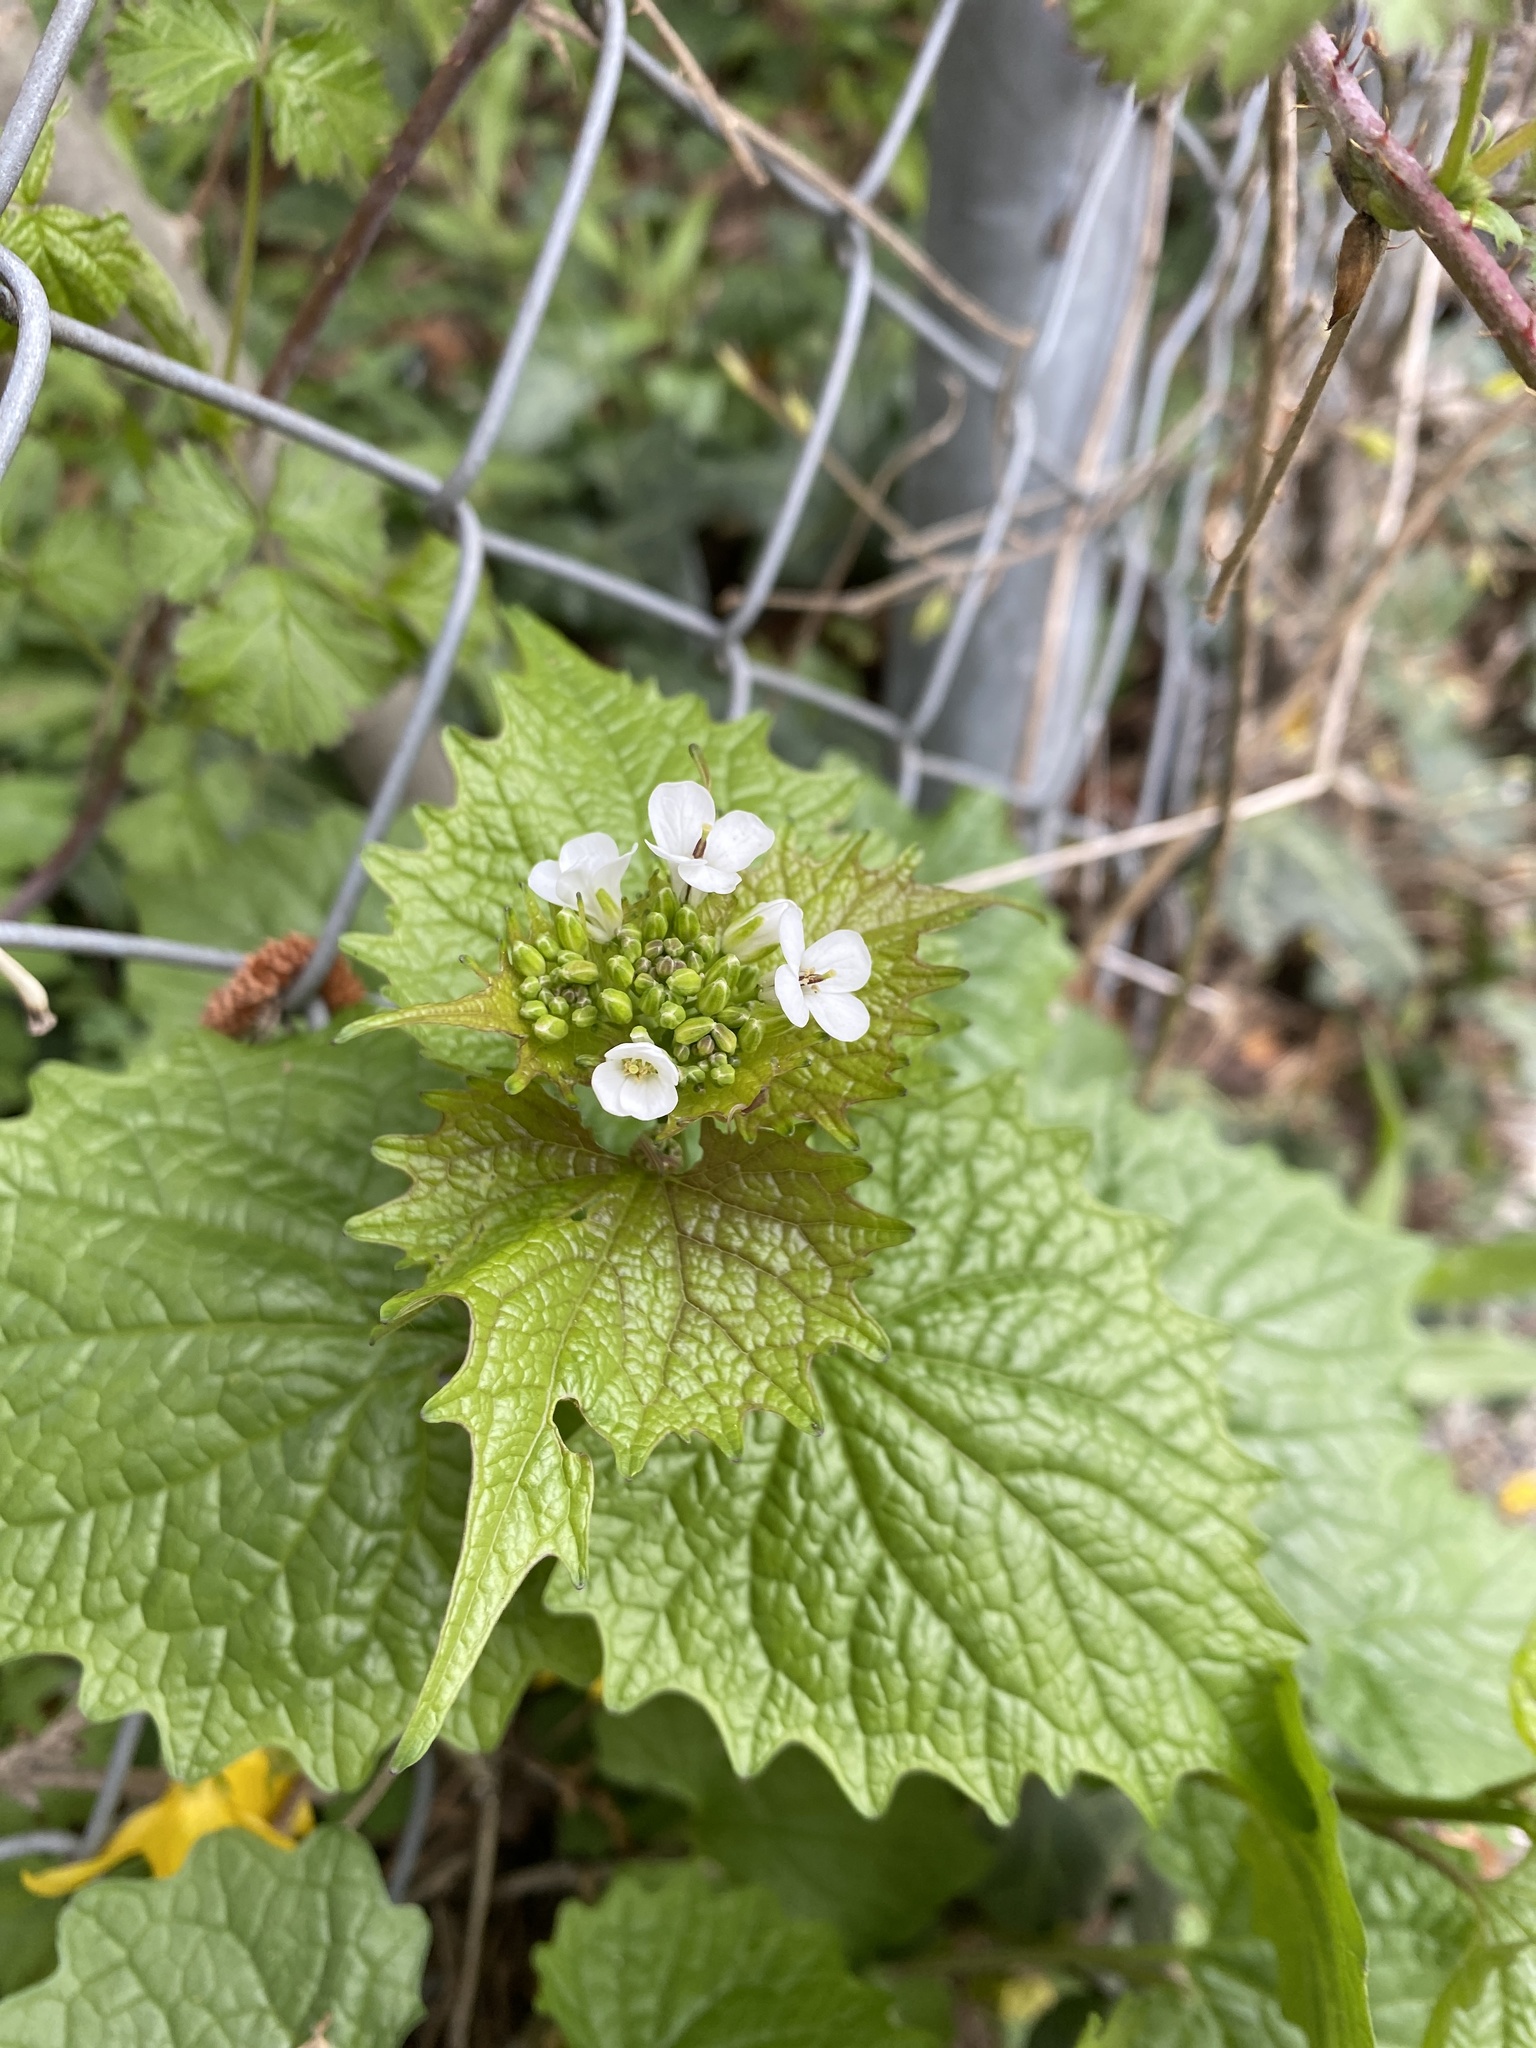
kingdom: Plantae
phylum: Tracheophyta
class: Magnoliopsida
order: Brassicales
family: Brassicaceae
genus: Alliaria
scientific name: Alliaria petiolata
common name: Garlic mustard
